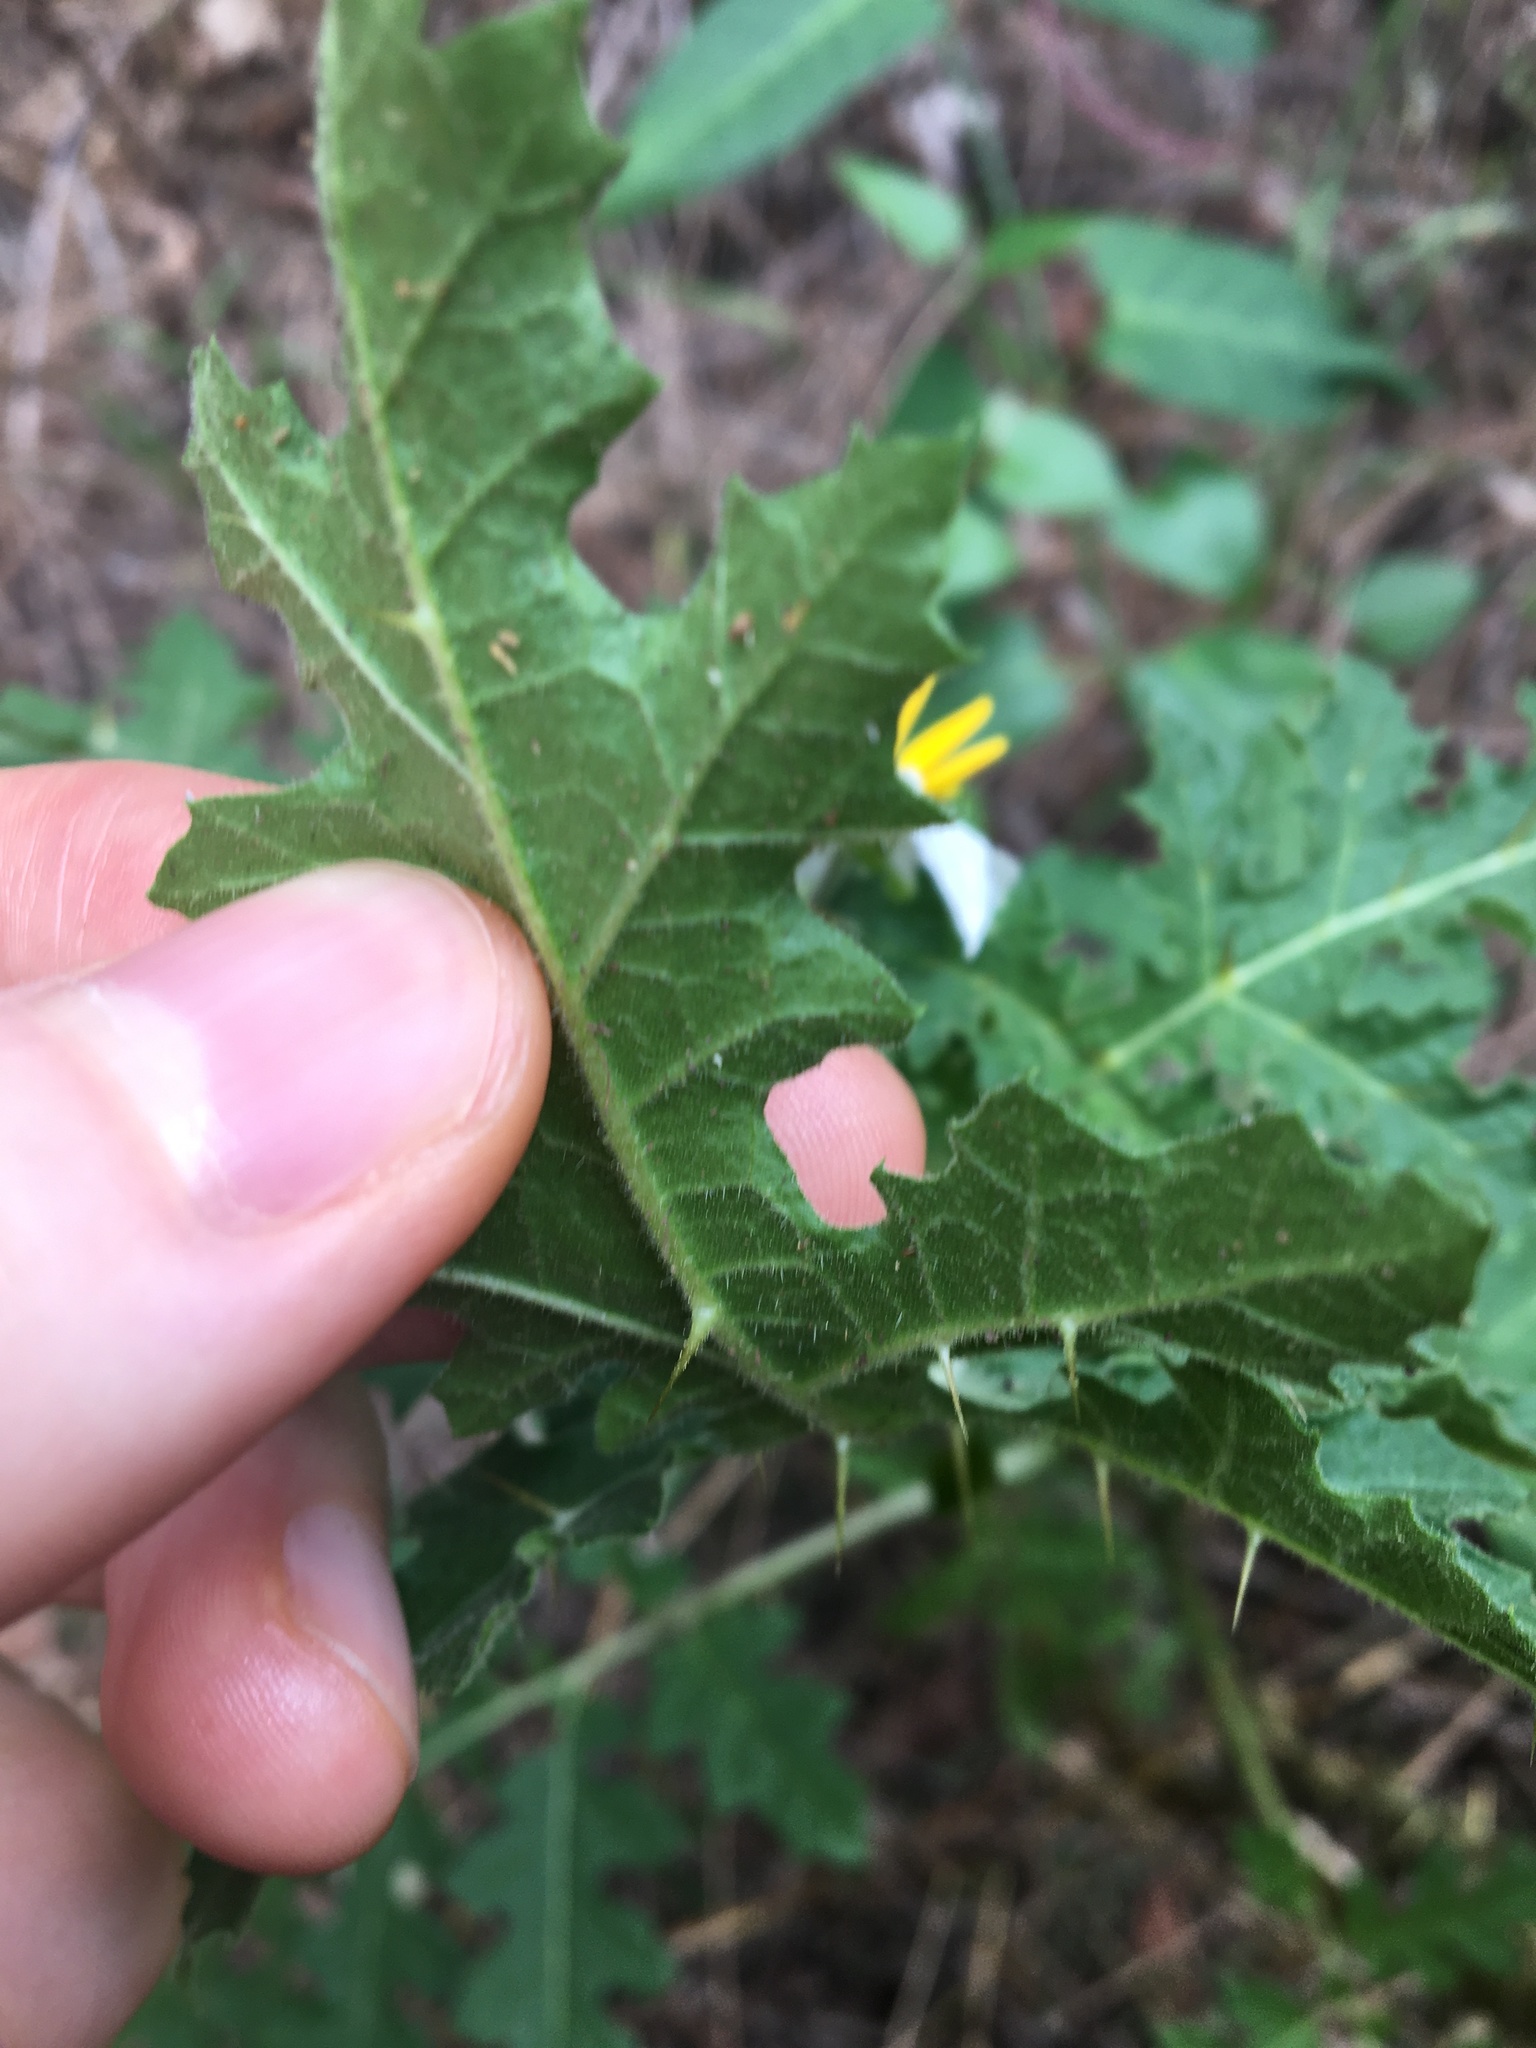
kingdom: Plantae
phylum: Tracheophyta
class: Magnoliopsida
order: Solanales
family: Solanaceae
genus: Solanum
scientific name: Solanum sisymbriifolium
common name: Red buffalo-bur
